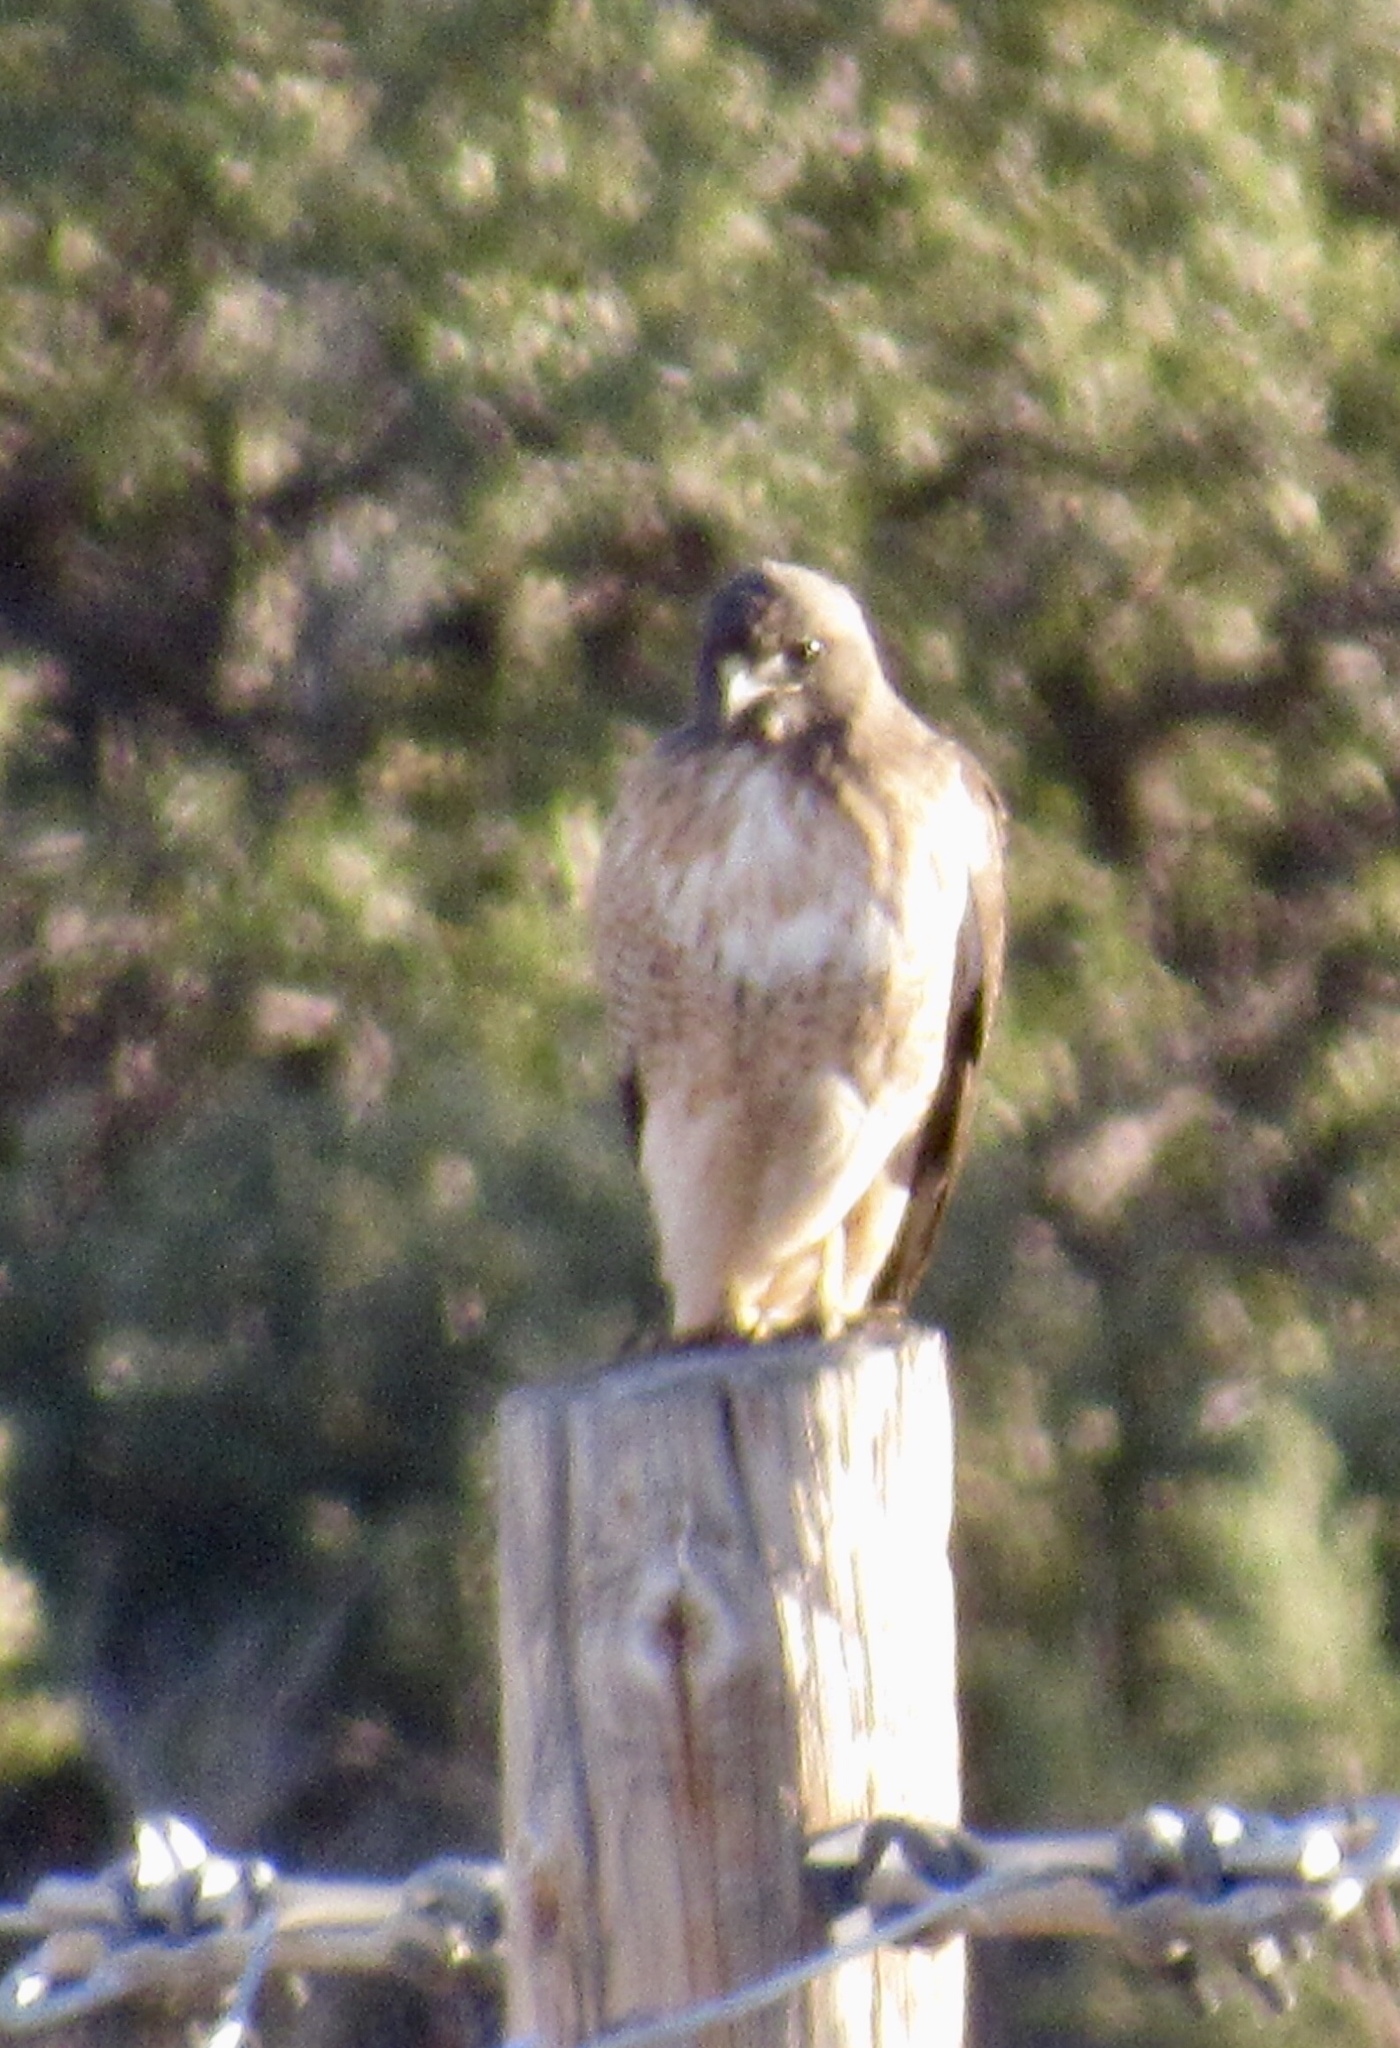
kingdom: Animalia
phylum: Chordata
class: Aves
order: Accipitriformes
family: Accipitridae
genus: Buteo
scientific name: Buteo jamaicensis
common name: Red-tailed hawk
